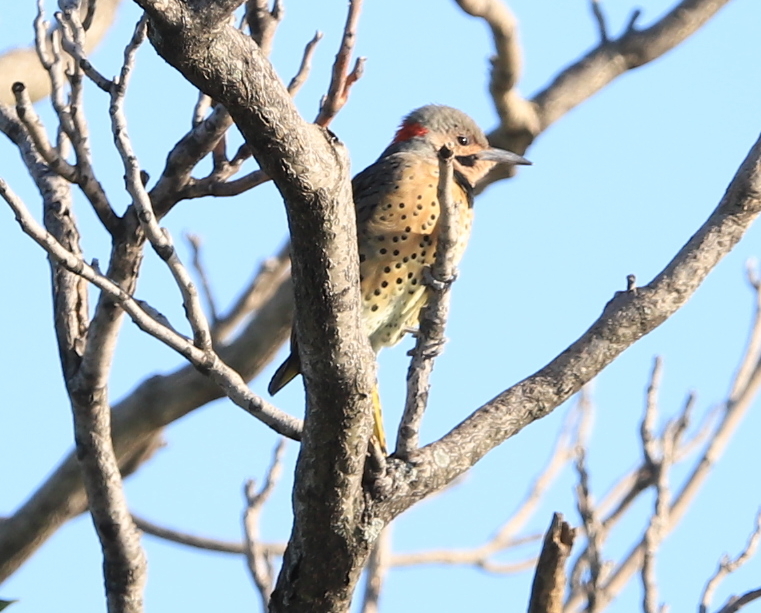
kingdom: Animalia
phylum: Chordata
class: Aves
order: Piciformes
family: Picidae
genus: Colaptes
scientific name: Colaptes auratus
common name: Northern flicker
